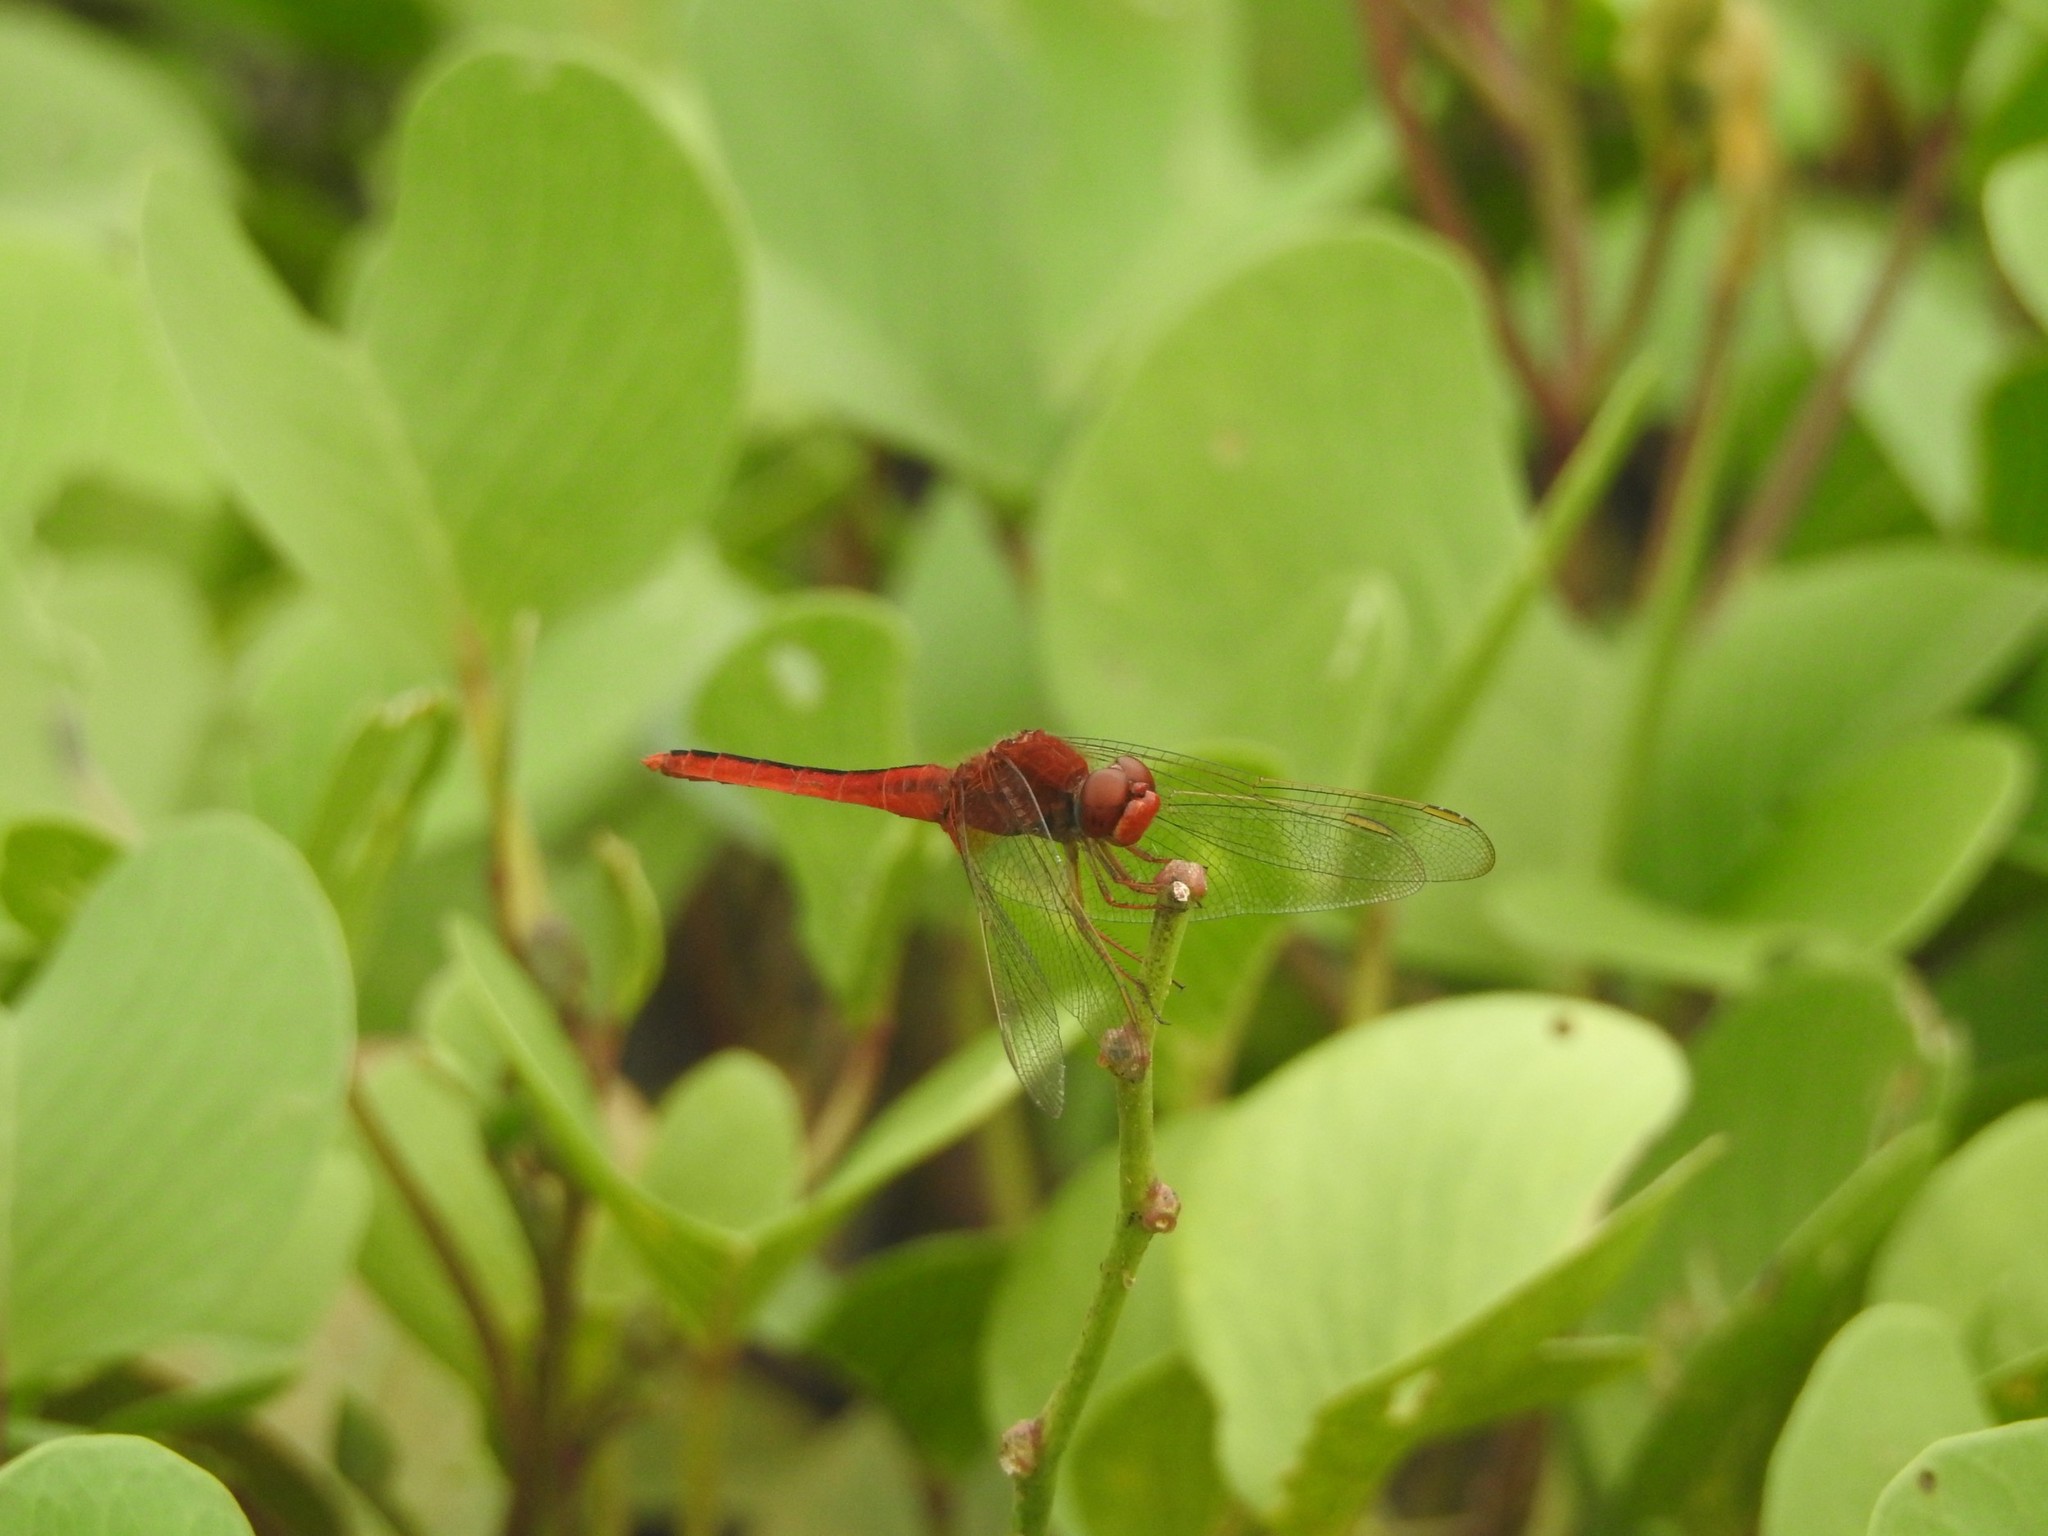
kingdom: Animalia
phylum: Arthropoda
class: Insecta
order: Odonata
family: Libellulidae
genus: Crocothemis
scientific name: Crocothemis servilia
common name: Scarlet skimmer
